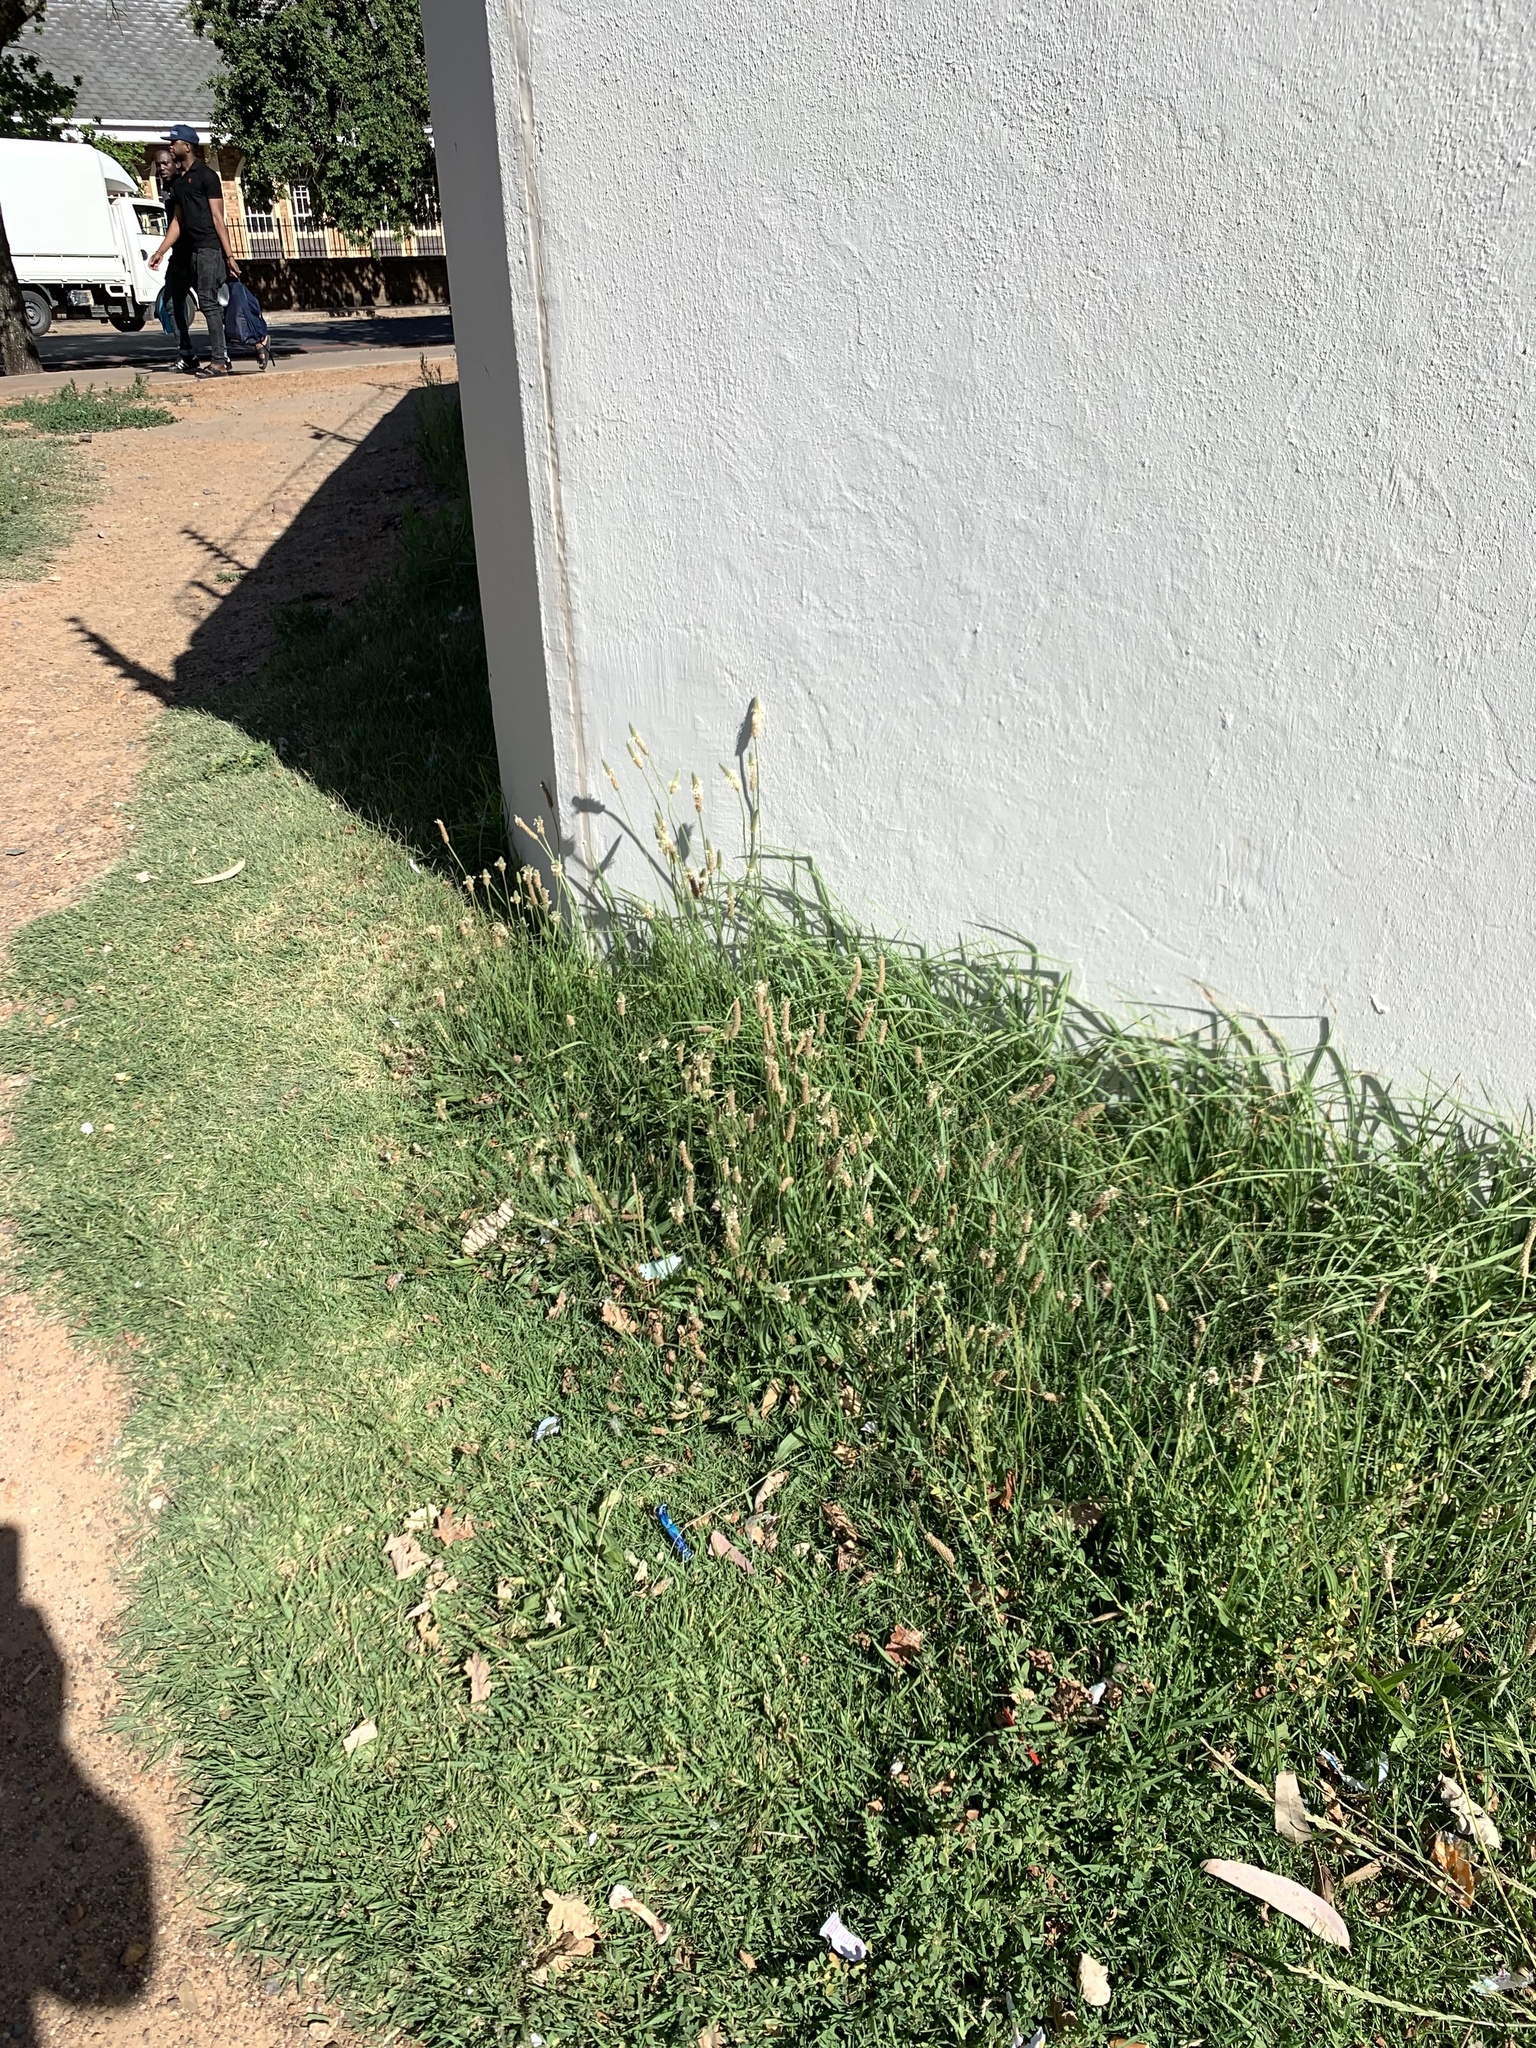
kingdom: Plantae
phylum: Tracheophyta
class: Magnoliopsida
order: Lamiales
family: Plantaginaceae
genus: Plantago
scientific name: Plantago lanceolata
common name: Ribwort plantain
